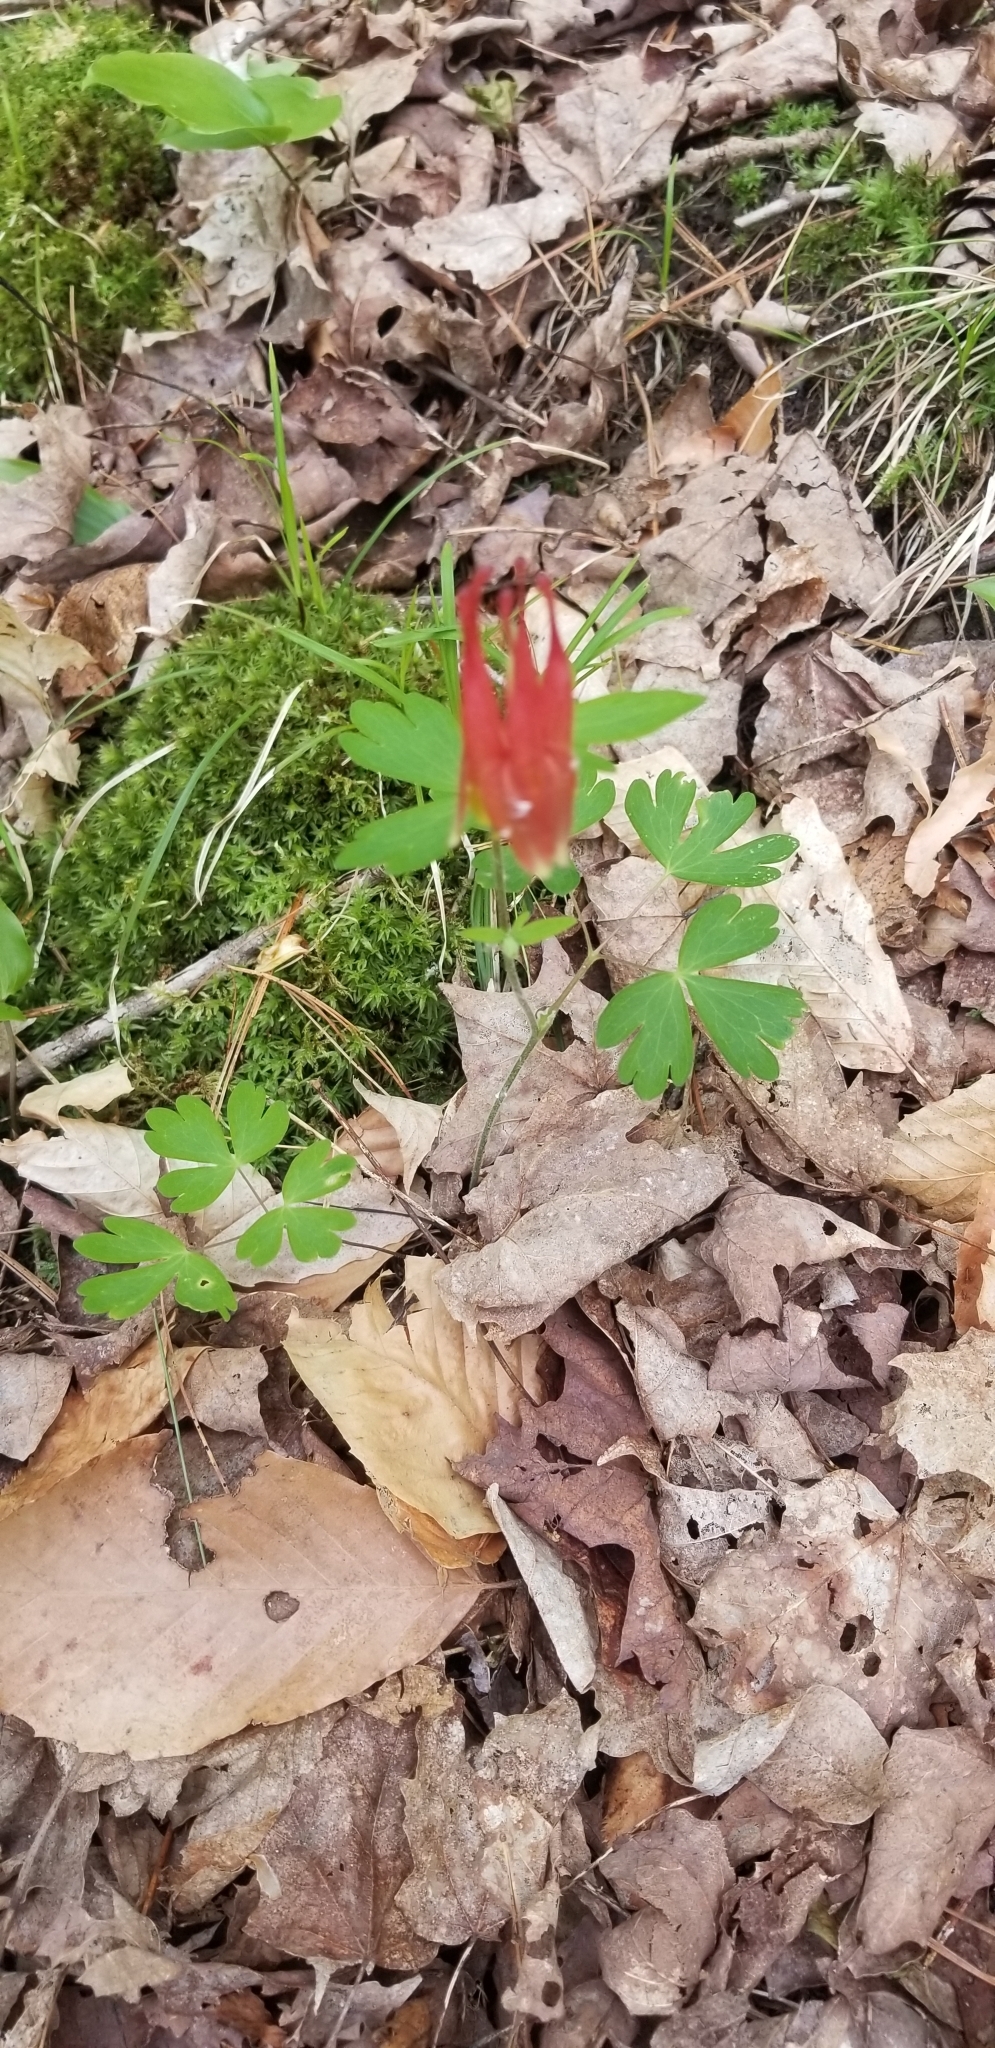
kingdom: Plantae
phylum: Tracheophyta
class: Magnoliopsida
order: Ranunculales
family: Ranunculaceae
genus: Aquilegia
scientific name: Aquilegia canadensis
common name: American columbine
